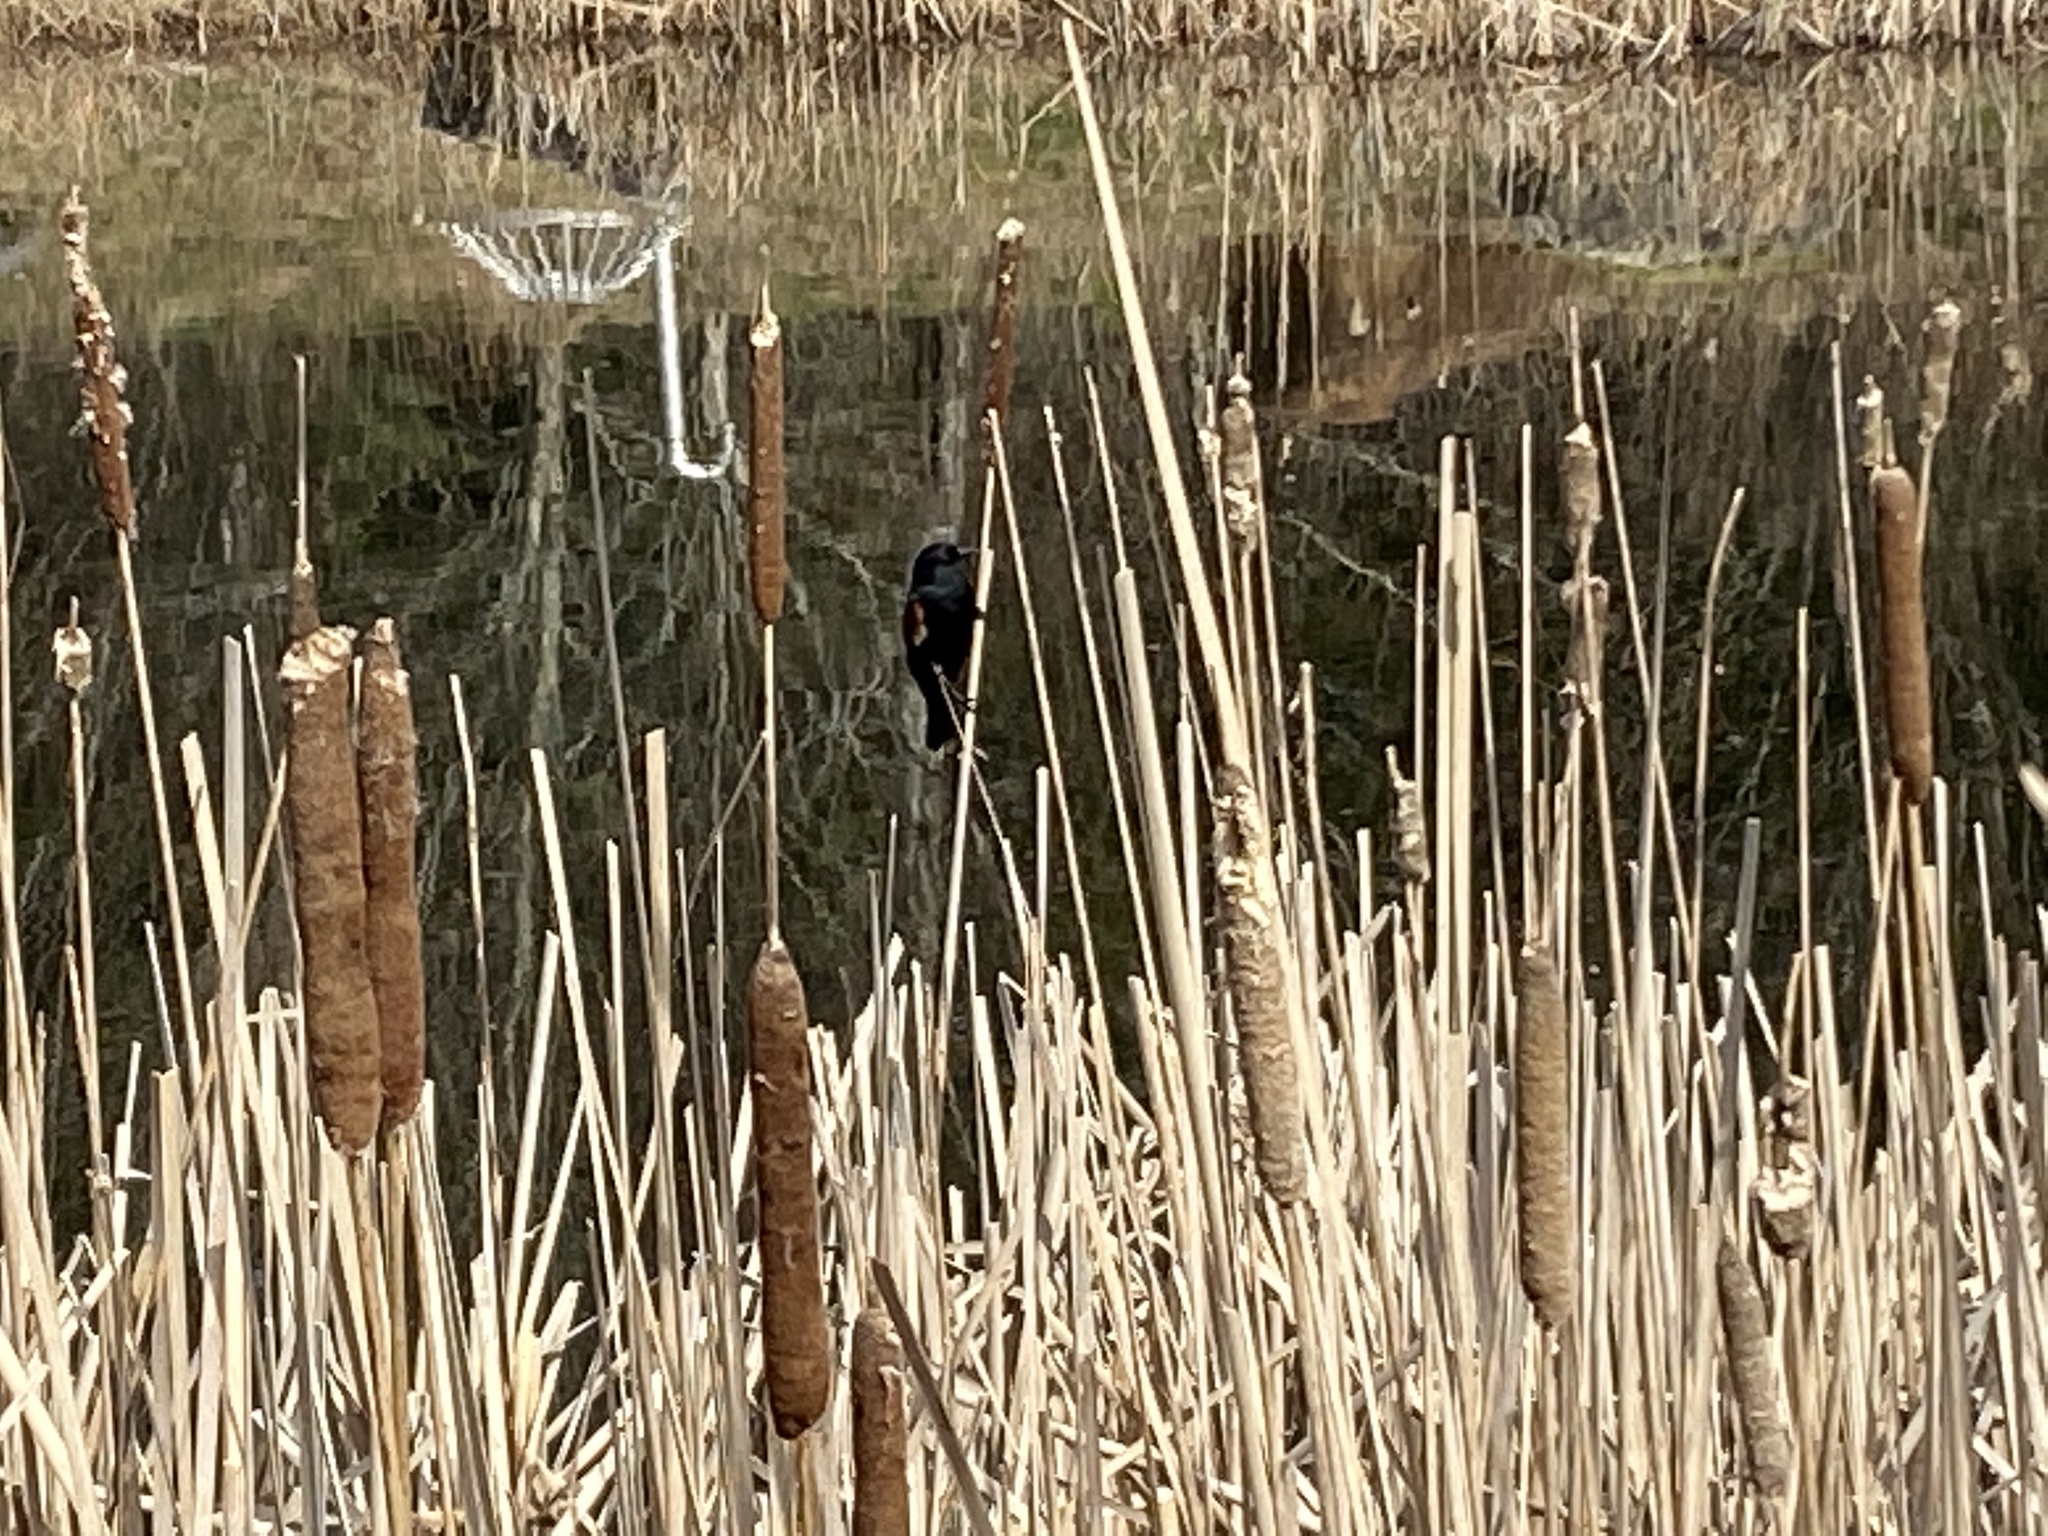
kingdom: Animalia
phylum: Chordata
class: Aves
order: Passeriformes
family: Icteridae
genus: Agelaius
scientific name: Agelaius phoeniceus
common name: Red-winged blackbird
